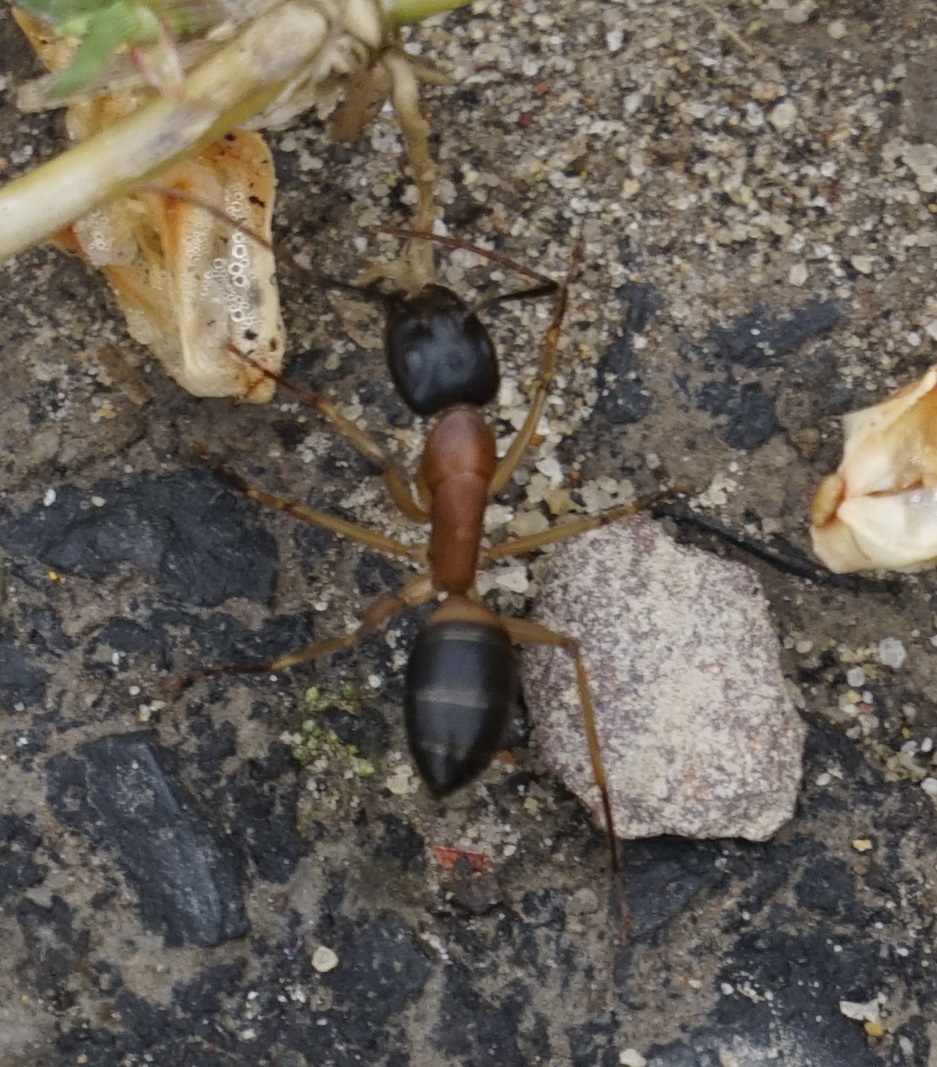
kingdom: Animalia
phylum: Arthropoda
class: Insecta
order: Hymenoptera
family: Formicidae
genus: Camponotus
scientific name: Camponotus consobrinus
